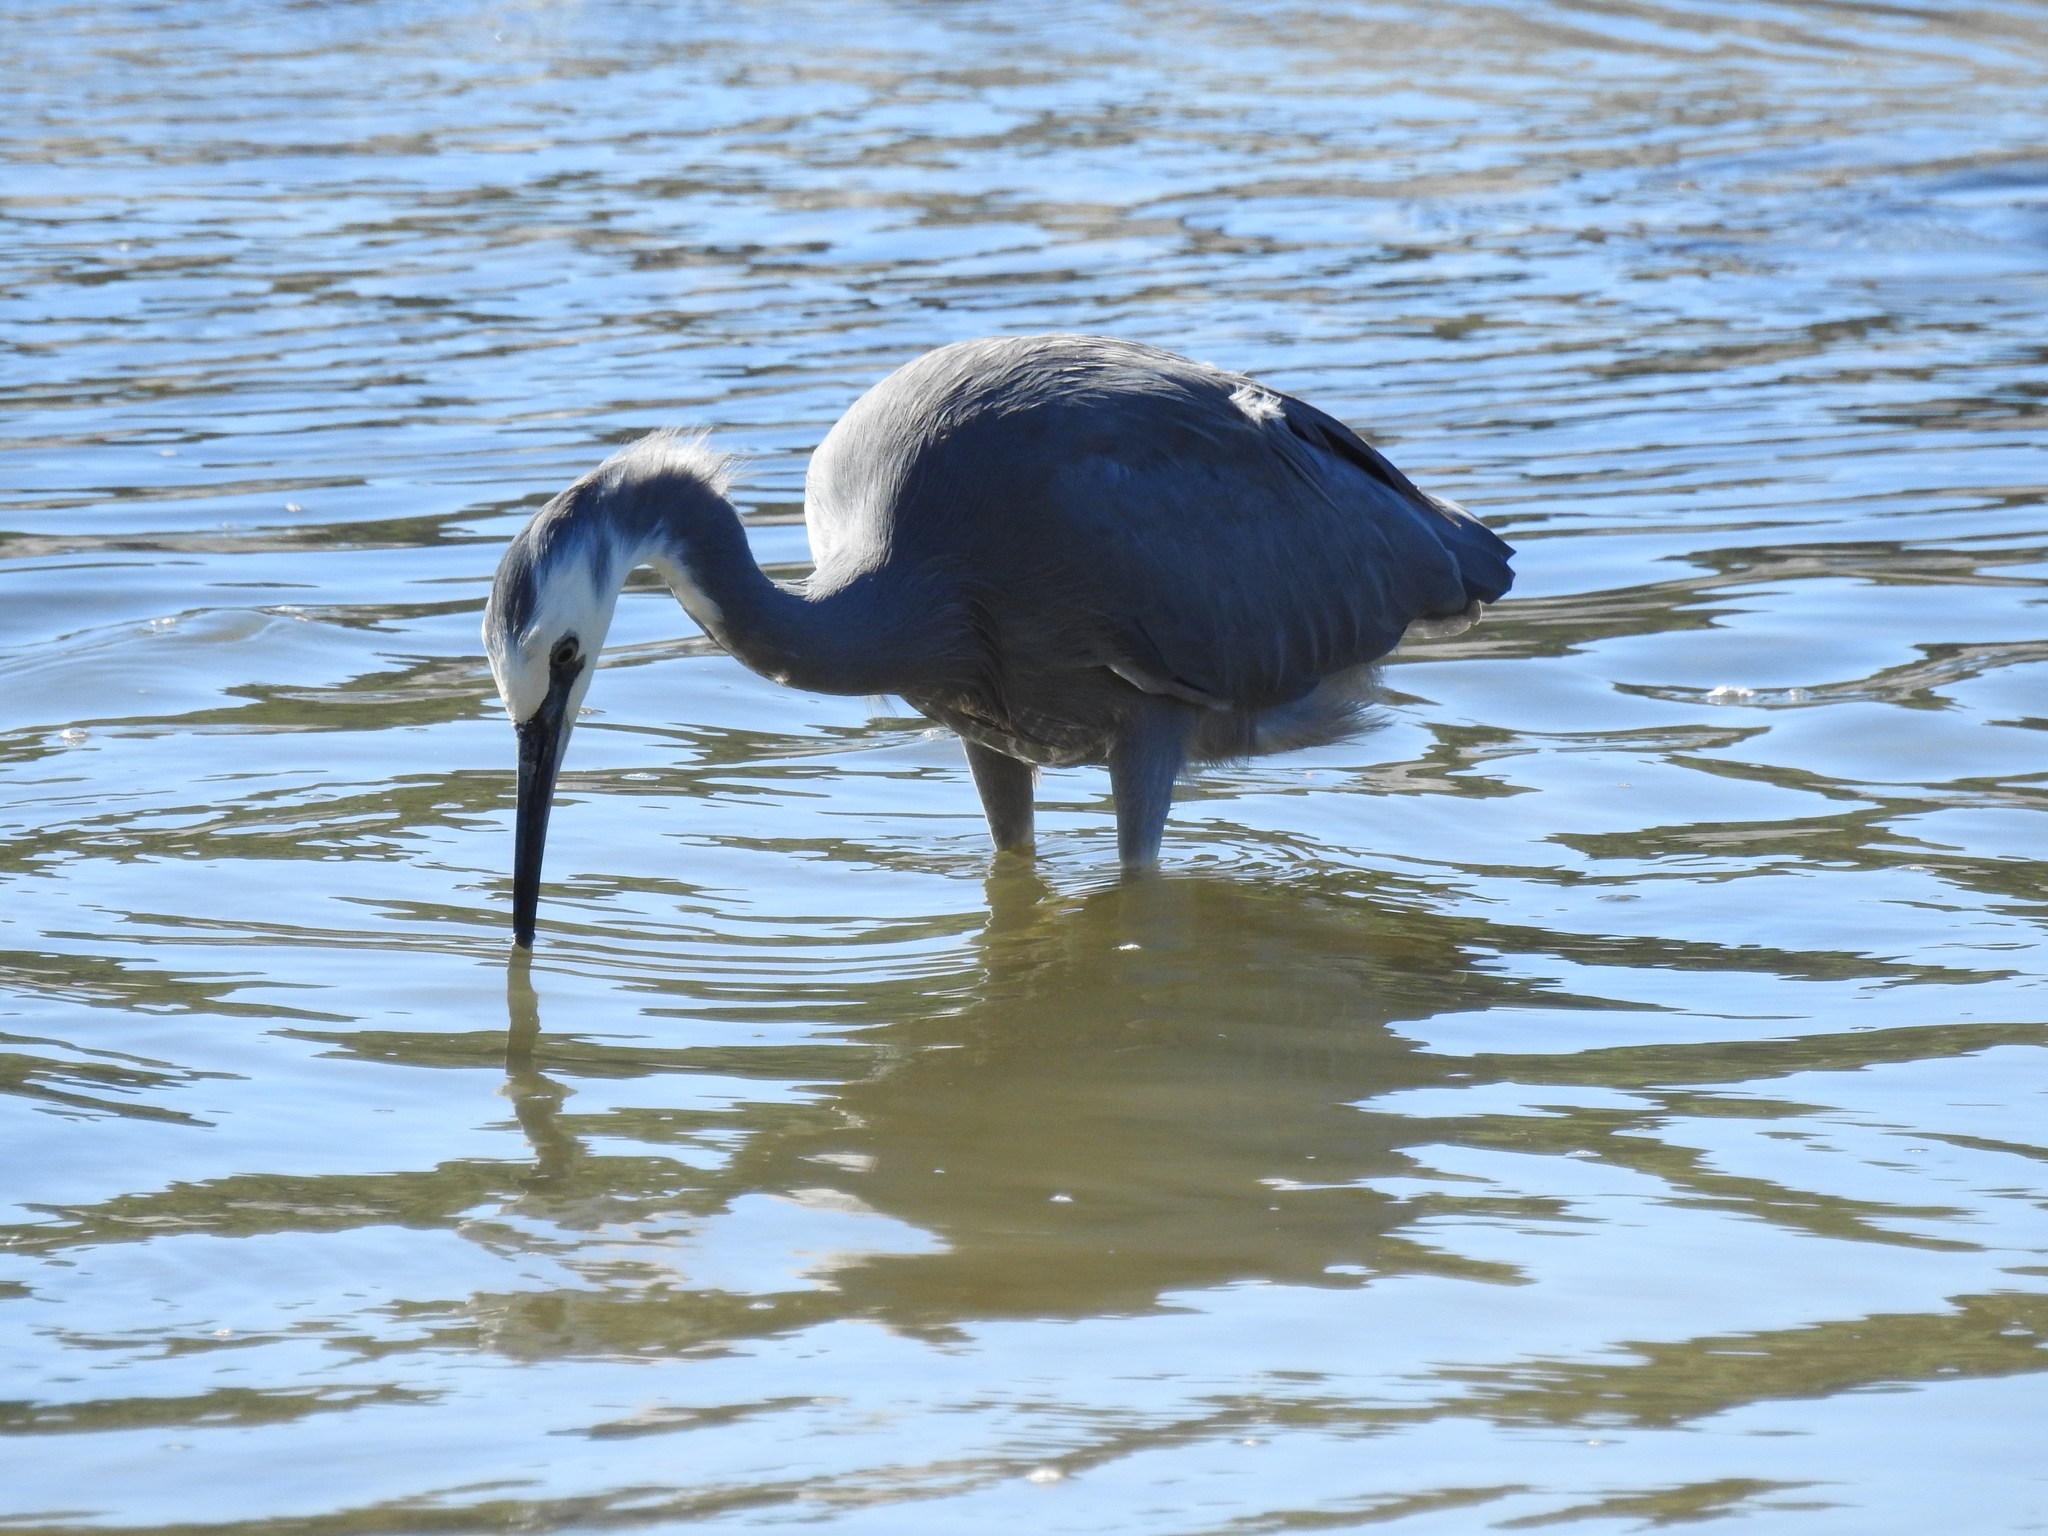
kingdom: Animalia
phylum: Chordata
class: Aves
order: Pelecaniformes
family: Ardeidae
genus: Egretta
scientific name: Egretta novaehollandiae
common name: White-faced heron
